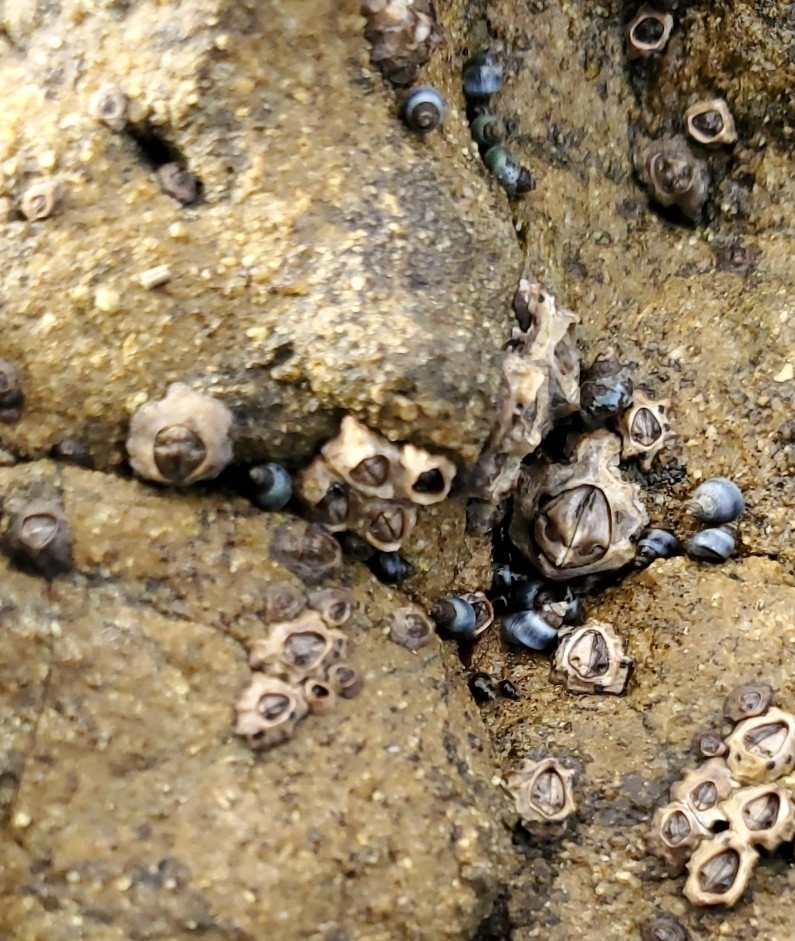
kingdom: Animalia
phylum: Arthropoda
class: Maxillopoda
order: Sessilia
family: Chthamalidae
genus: Chamaesipho
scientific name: Chamaesipho columna
